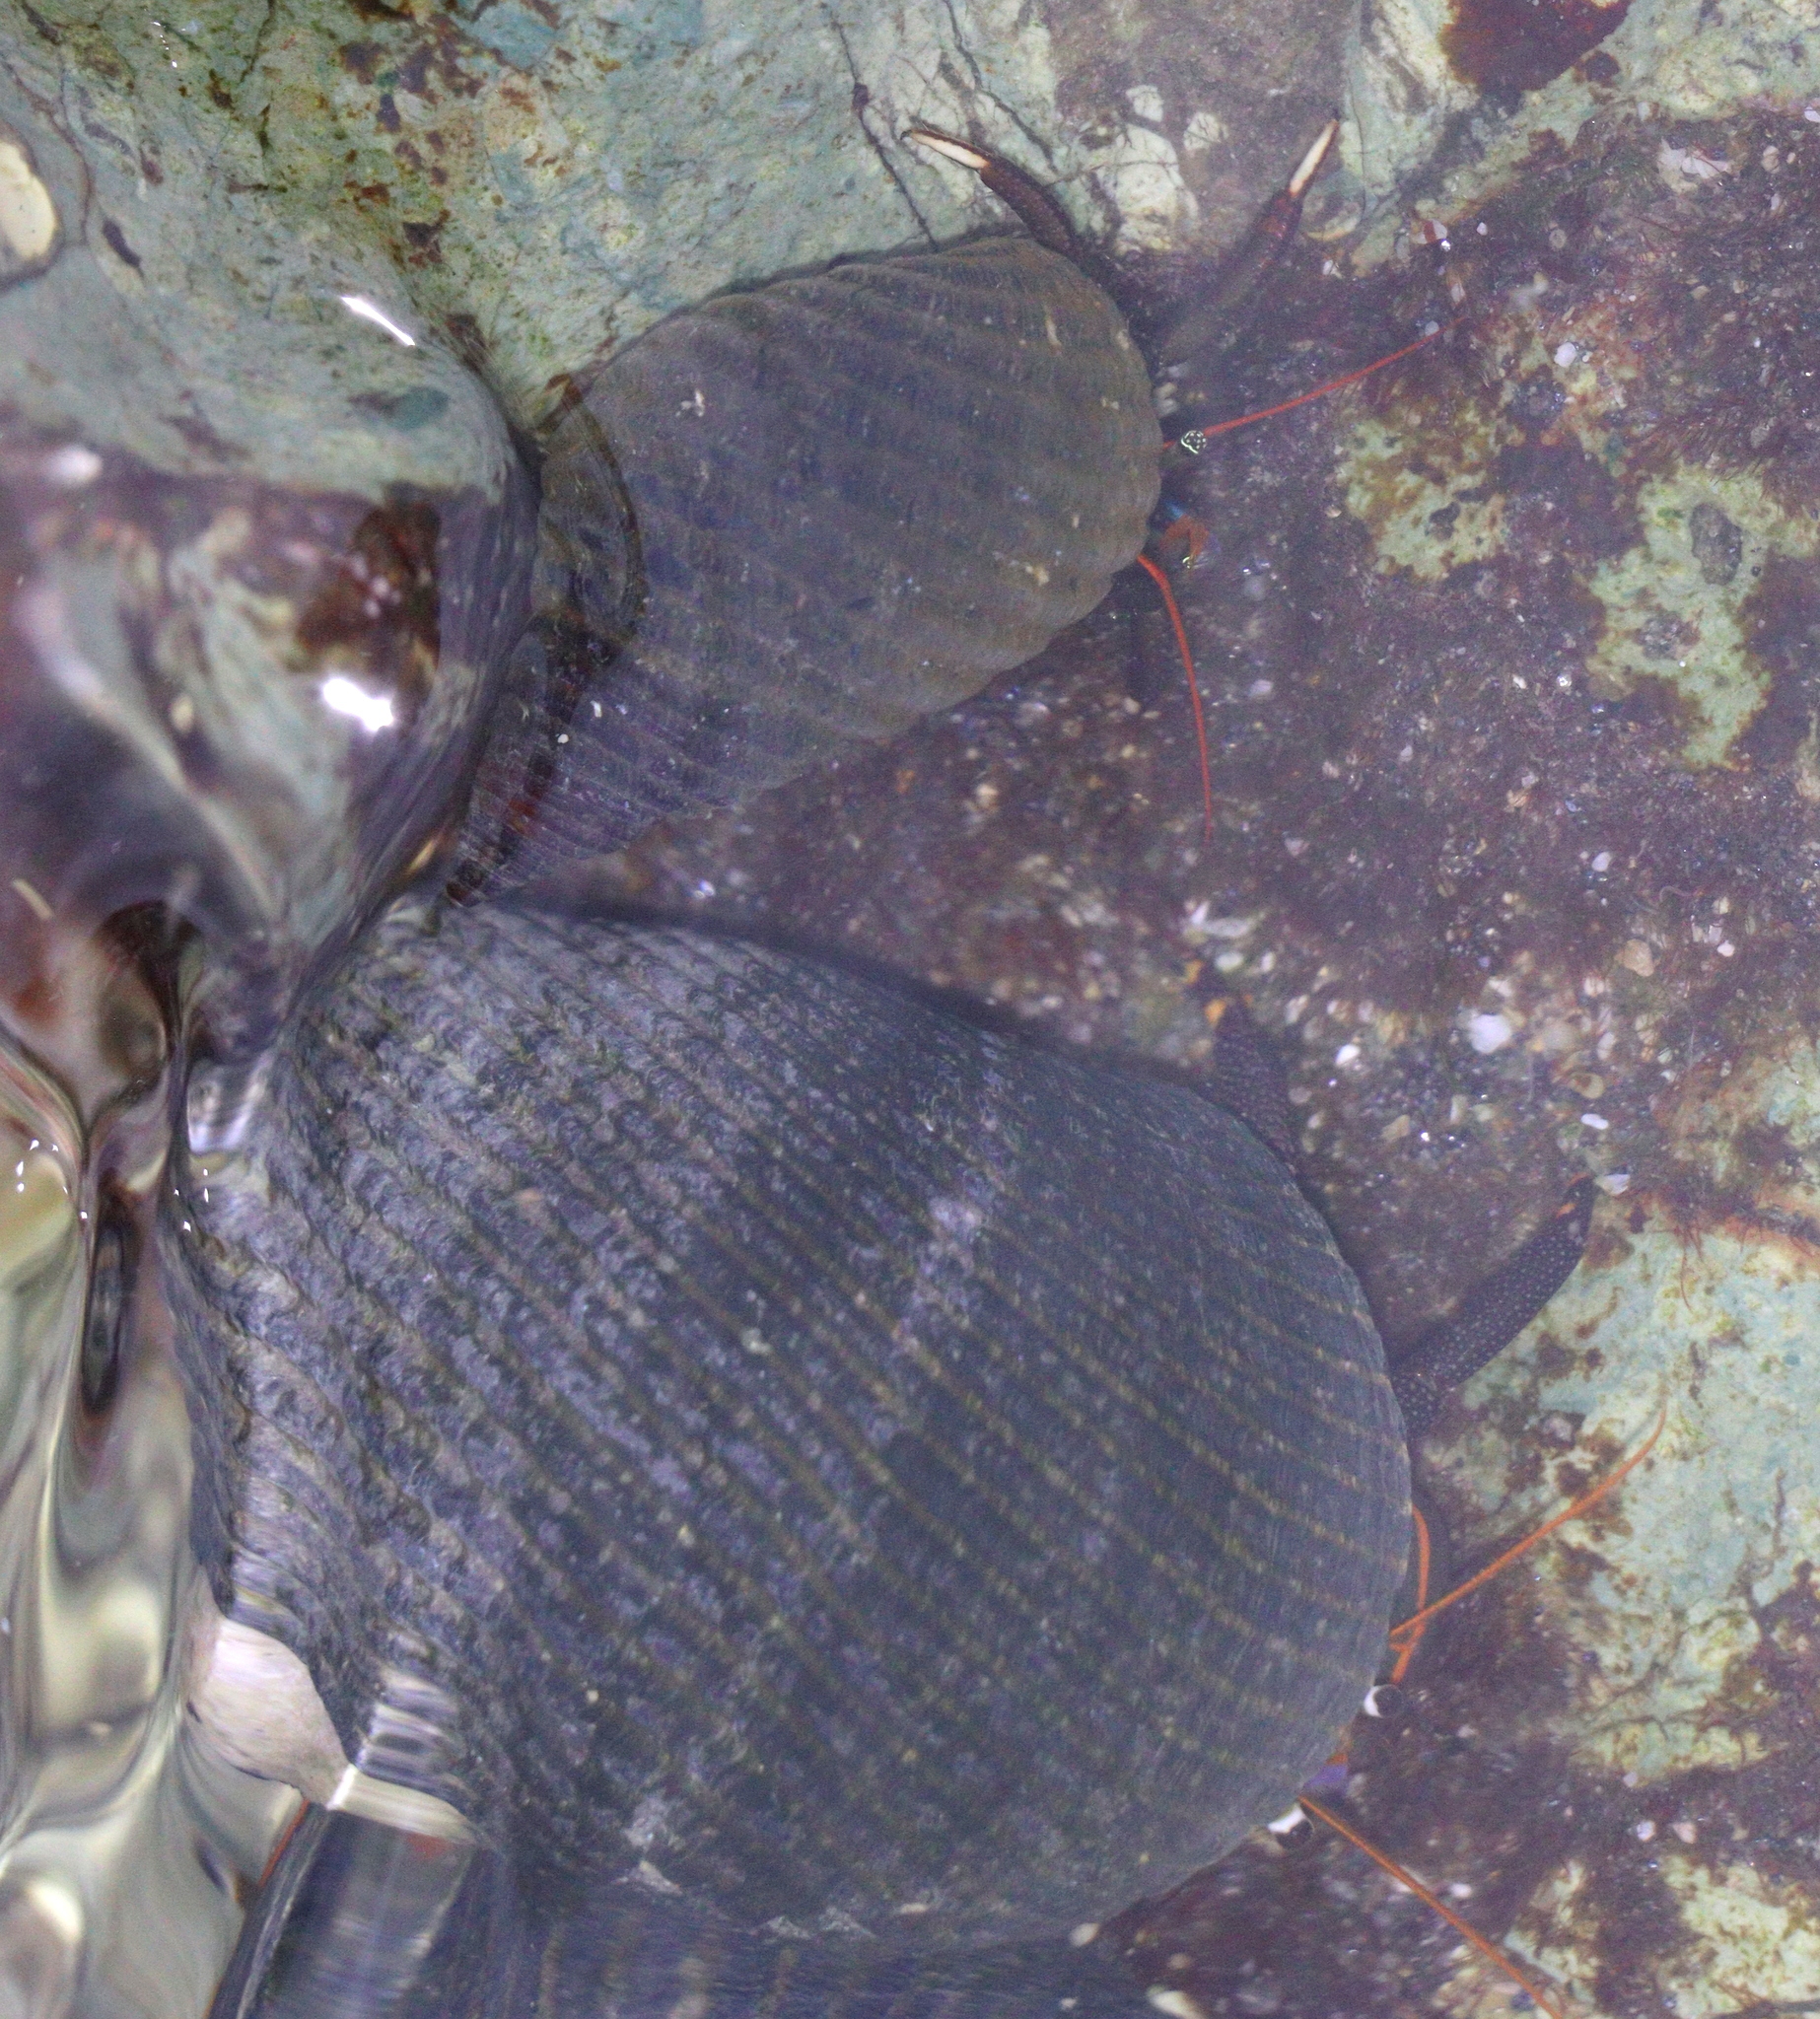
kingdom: Animalia
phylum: Arthropoda
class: Malacostraca
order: Decapoda
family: Diogenidae
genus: Calcinus
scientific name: Calcinus obscurus
